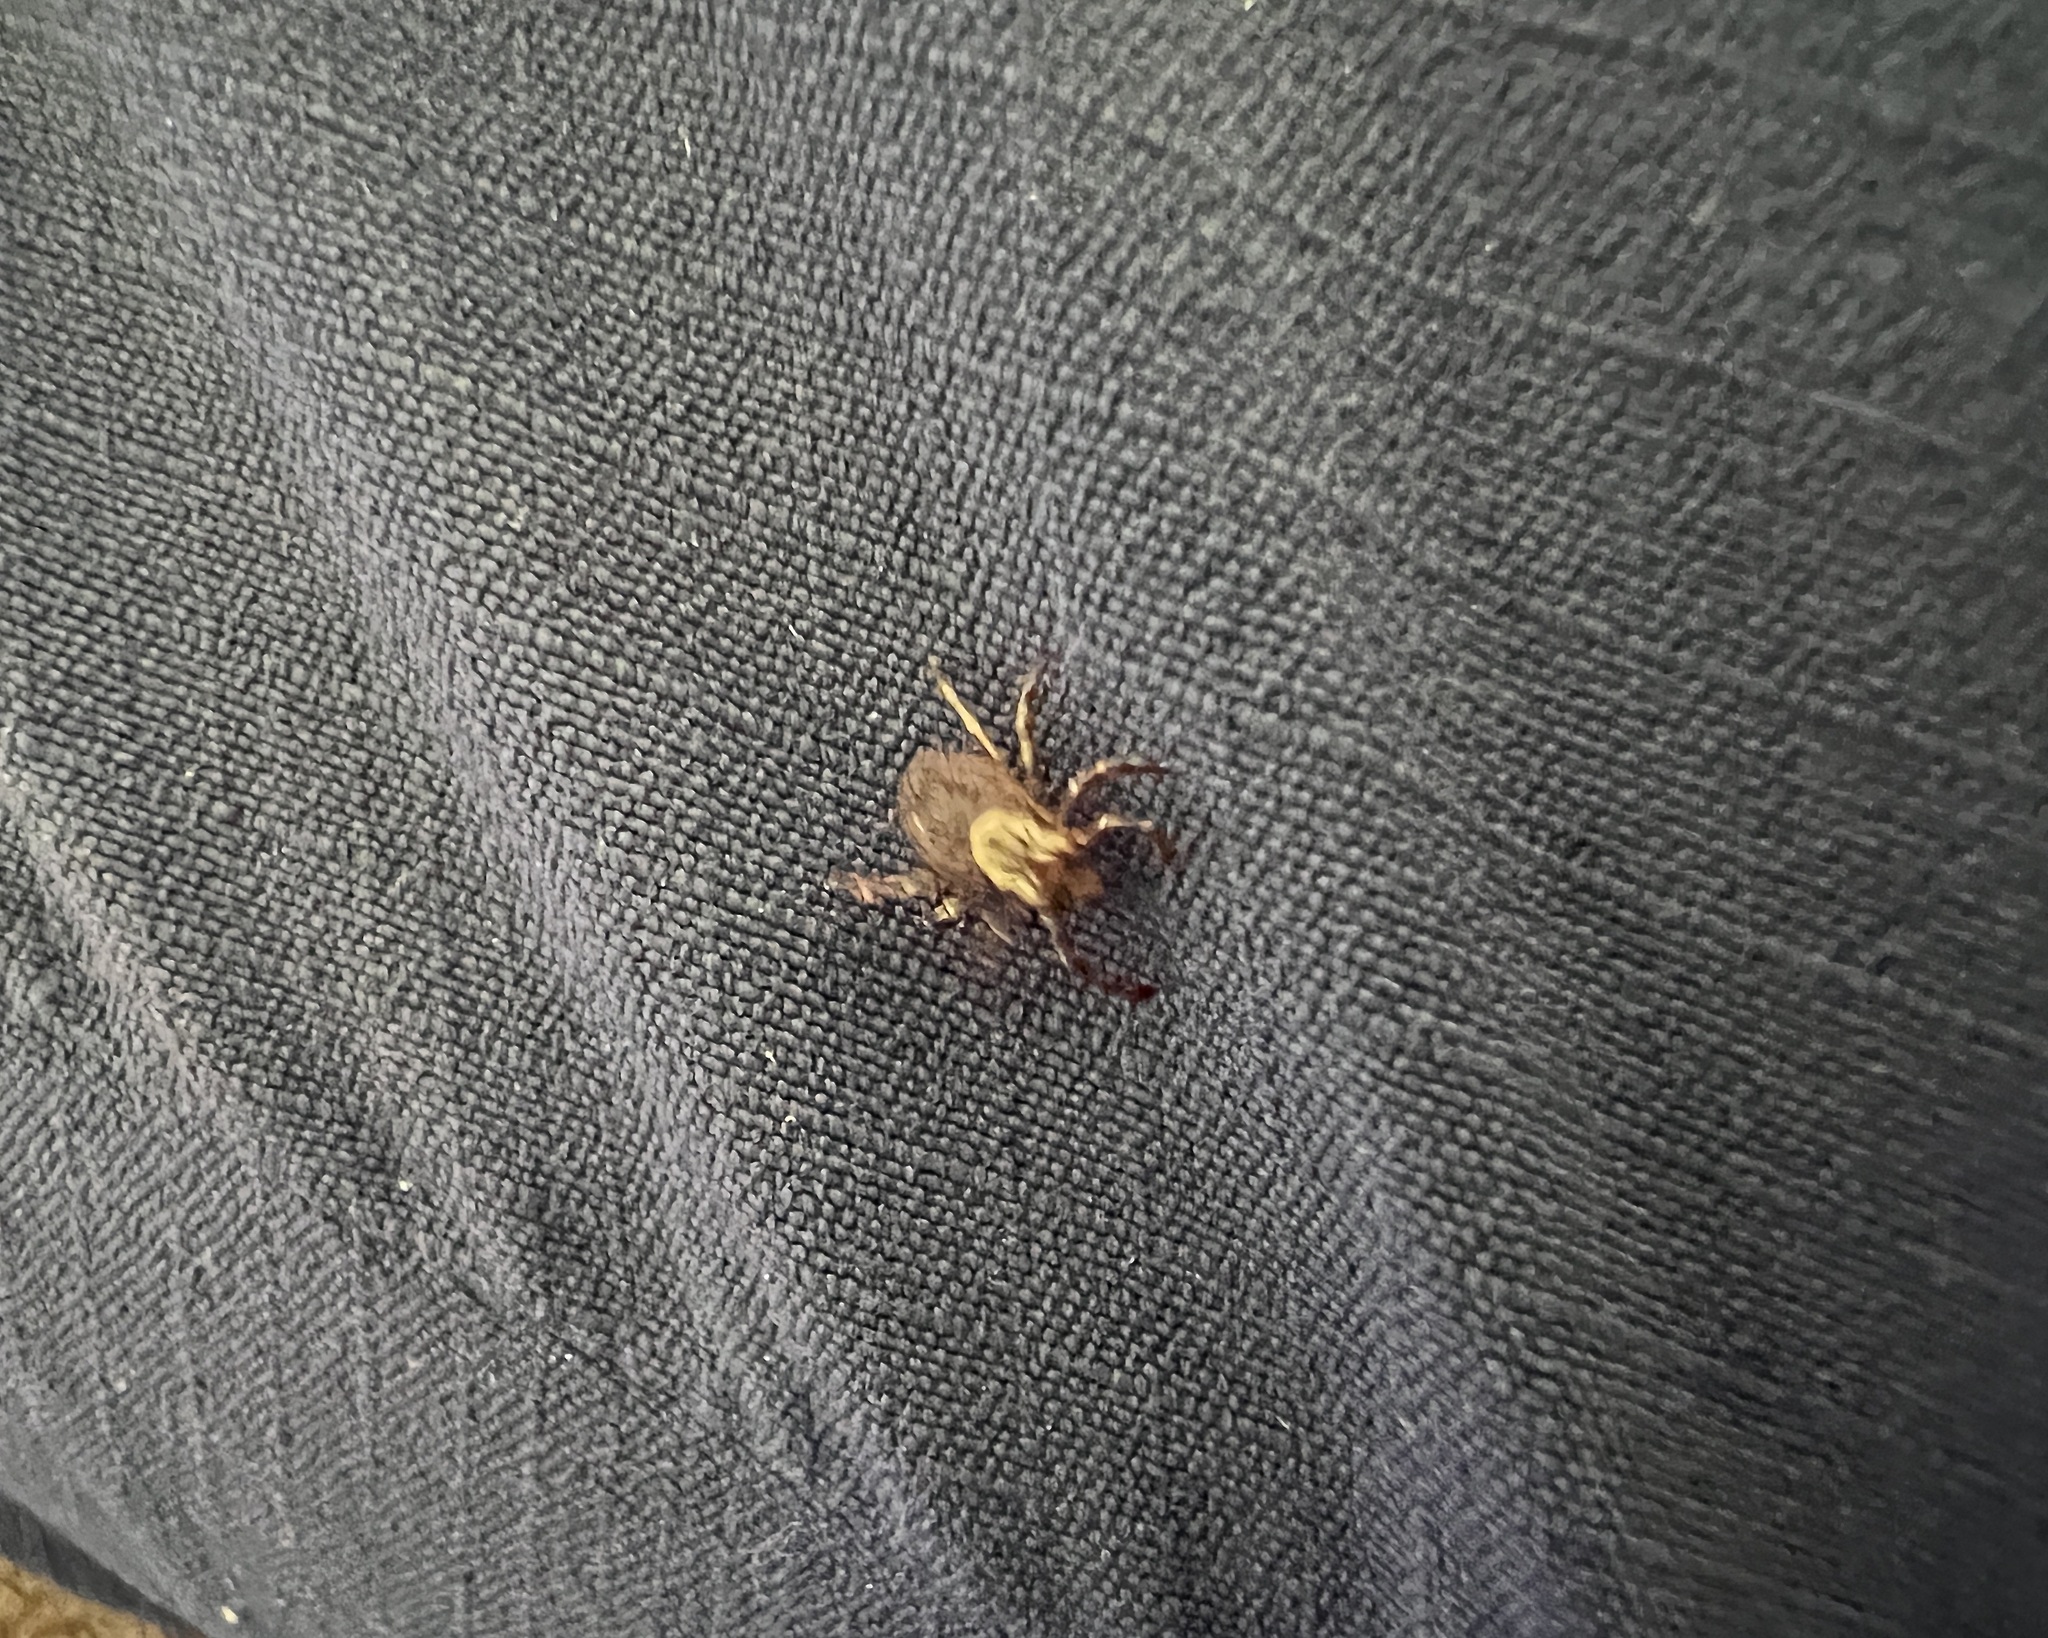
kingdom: Animalia
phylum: Arthropoda
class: Arachnida
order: Ixodida
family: Ixodidae
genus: Dermacentor
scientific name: Dermacentor variabilis
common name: American dog tick
